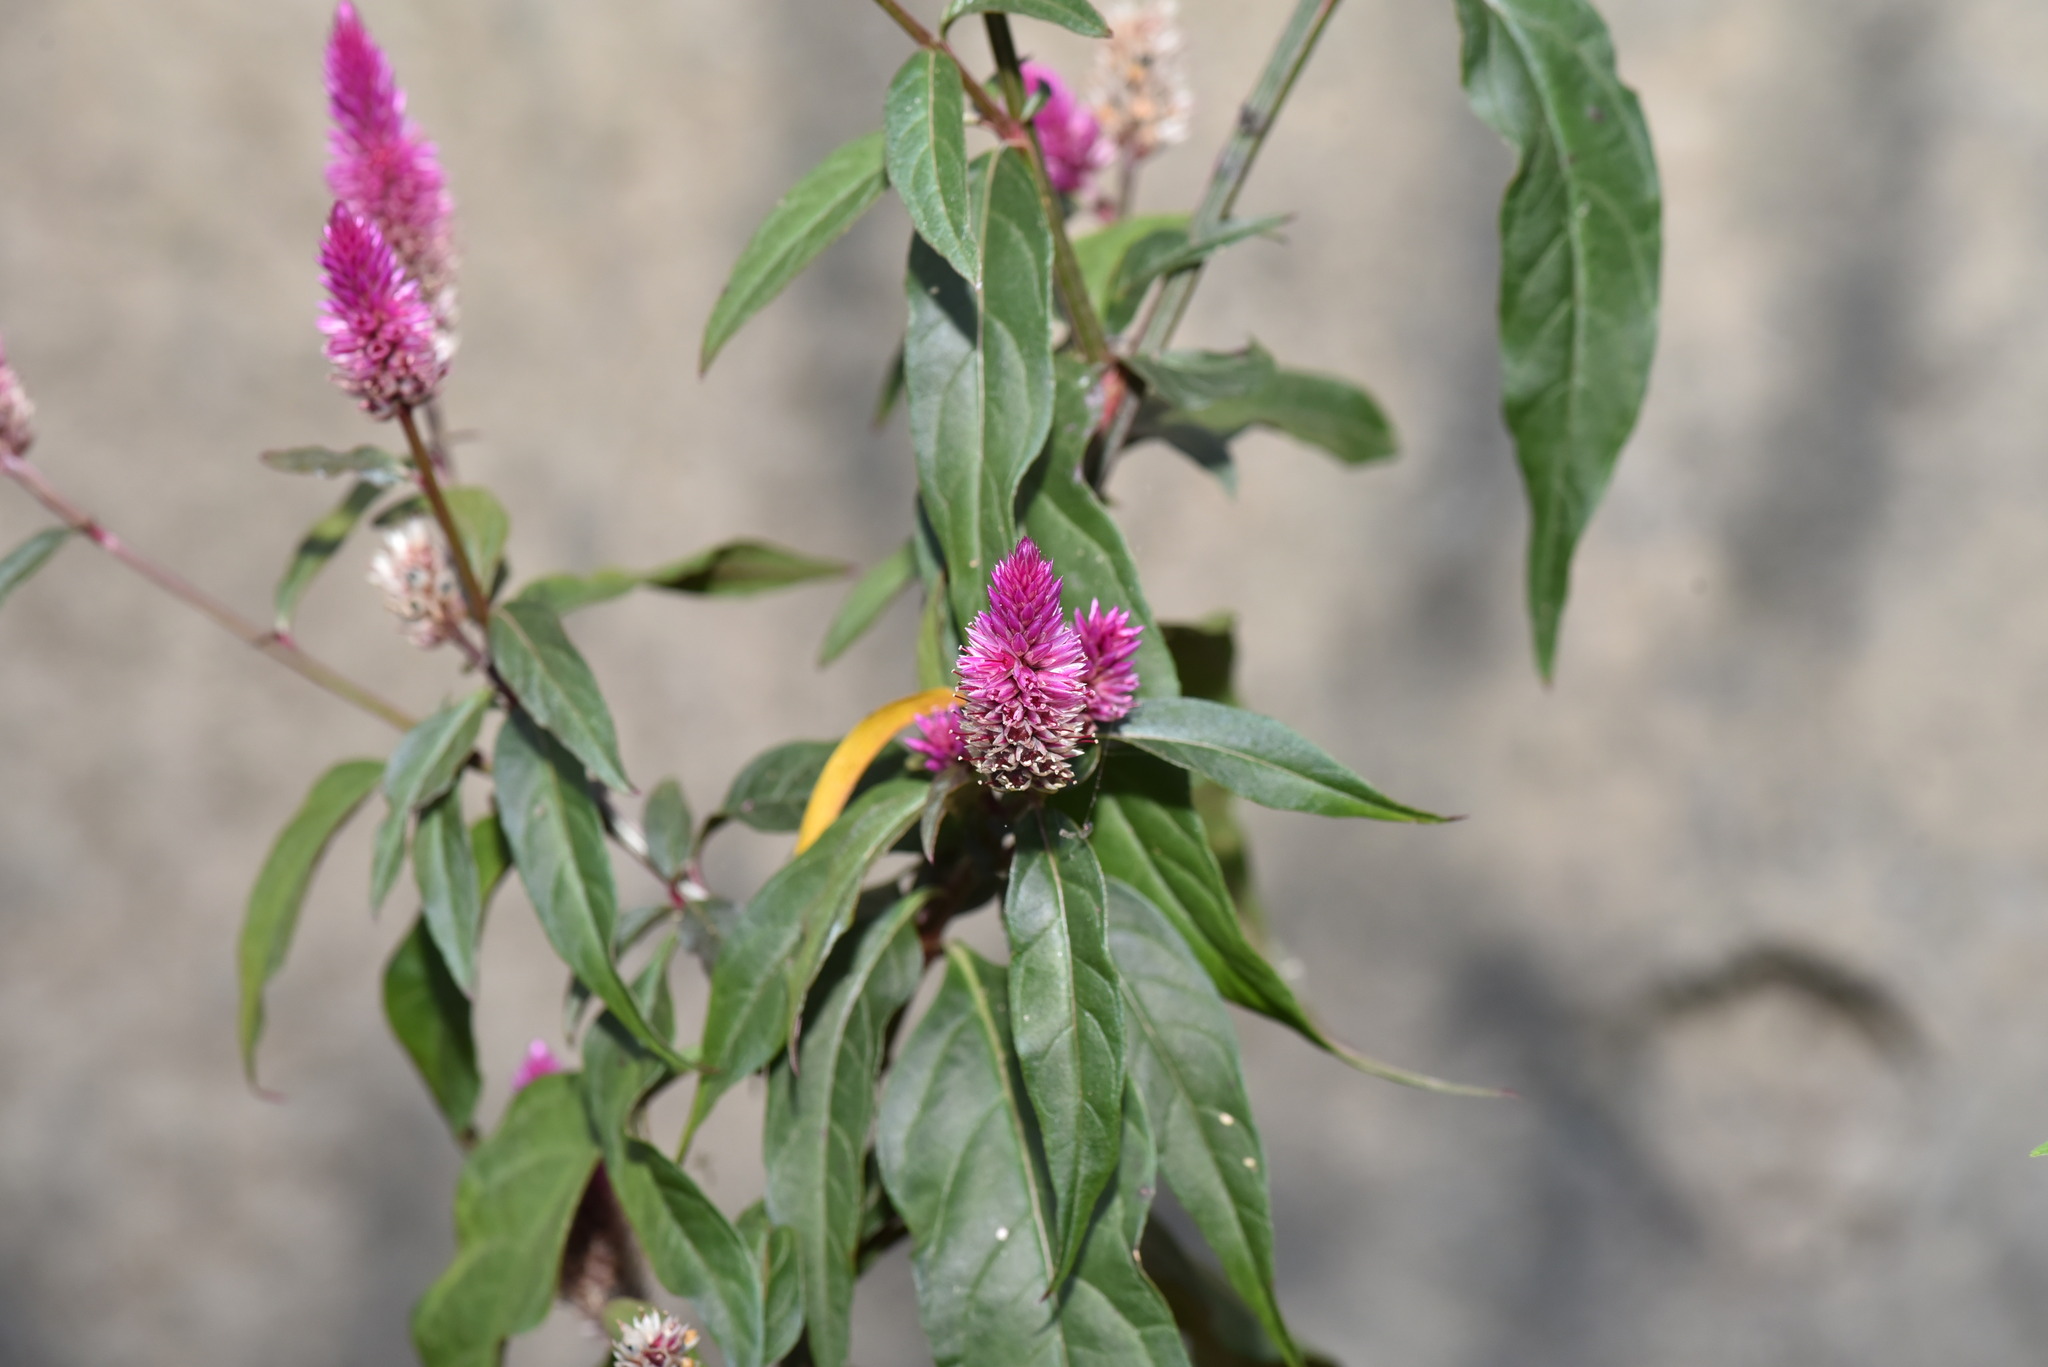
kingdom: Plantae
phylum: Tracheophyta
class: Magnoliopsida
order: Caryophyllales
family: Amaranthaceae
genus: Celosia
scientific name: Celosia argentea
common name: Feather cockscomb
